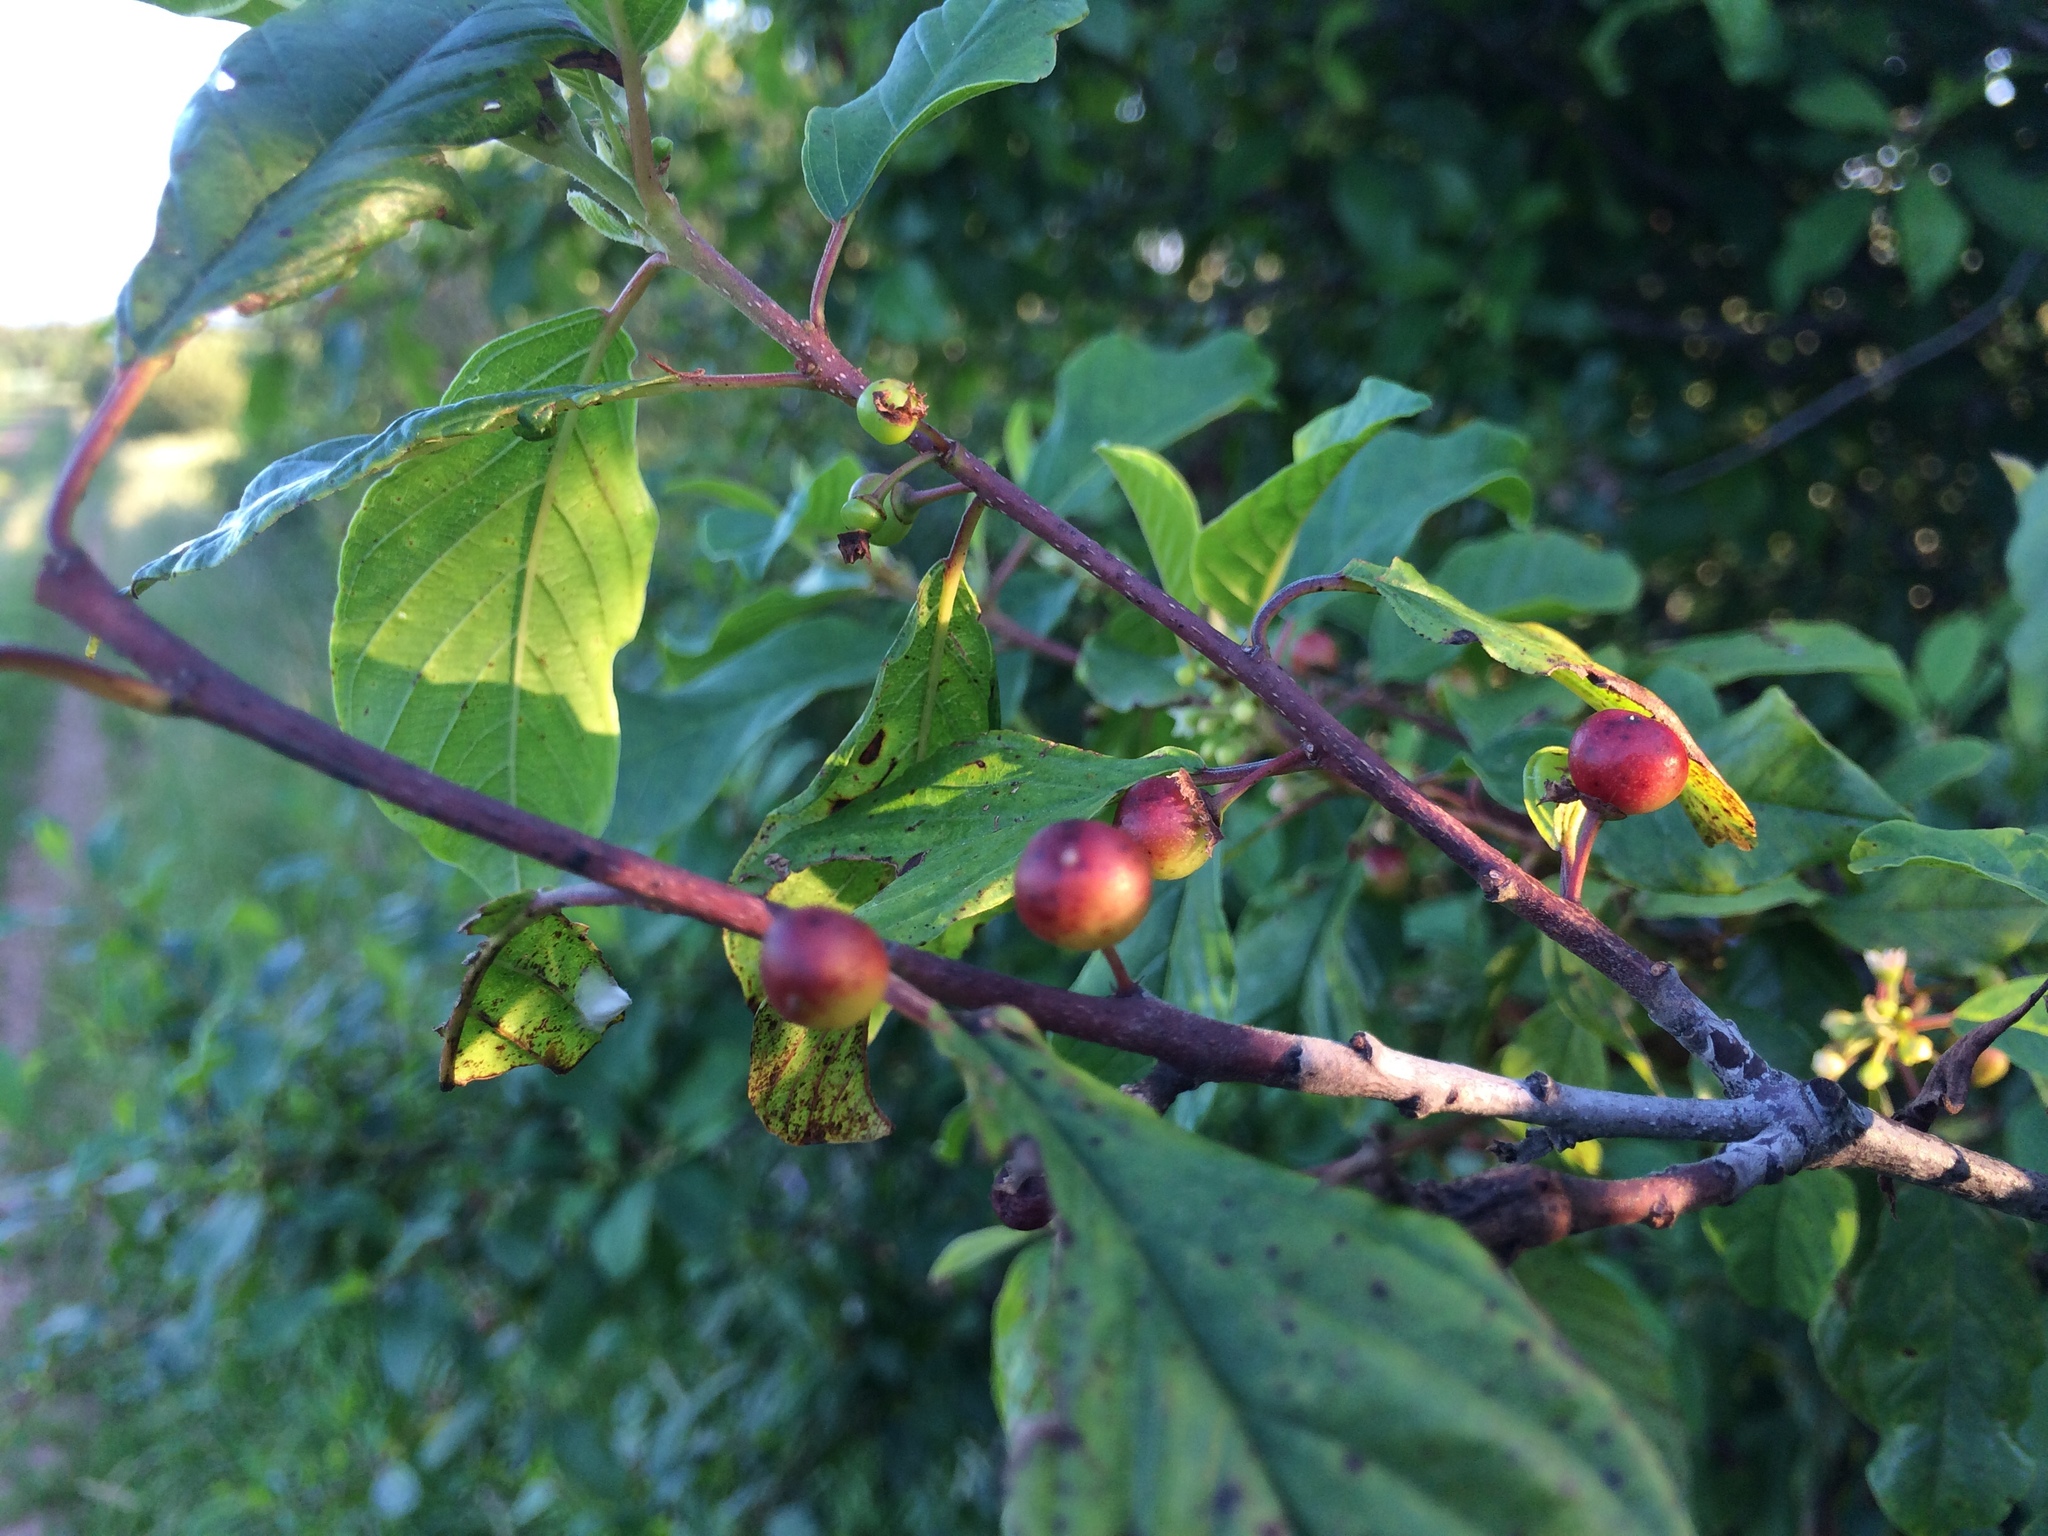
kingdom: Plantae
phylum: Tracheophyta
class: Magnoliopsida
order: Rosales
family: Rhamnaceae
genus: Frangula
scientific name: Frangula alnus
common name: Alder buckthorn
